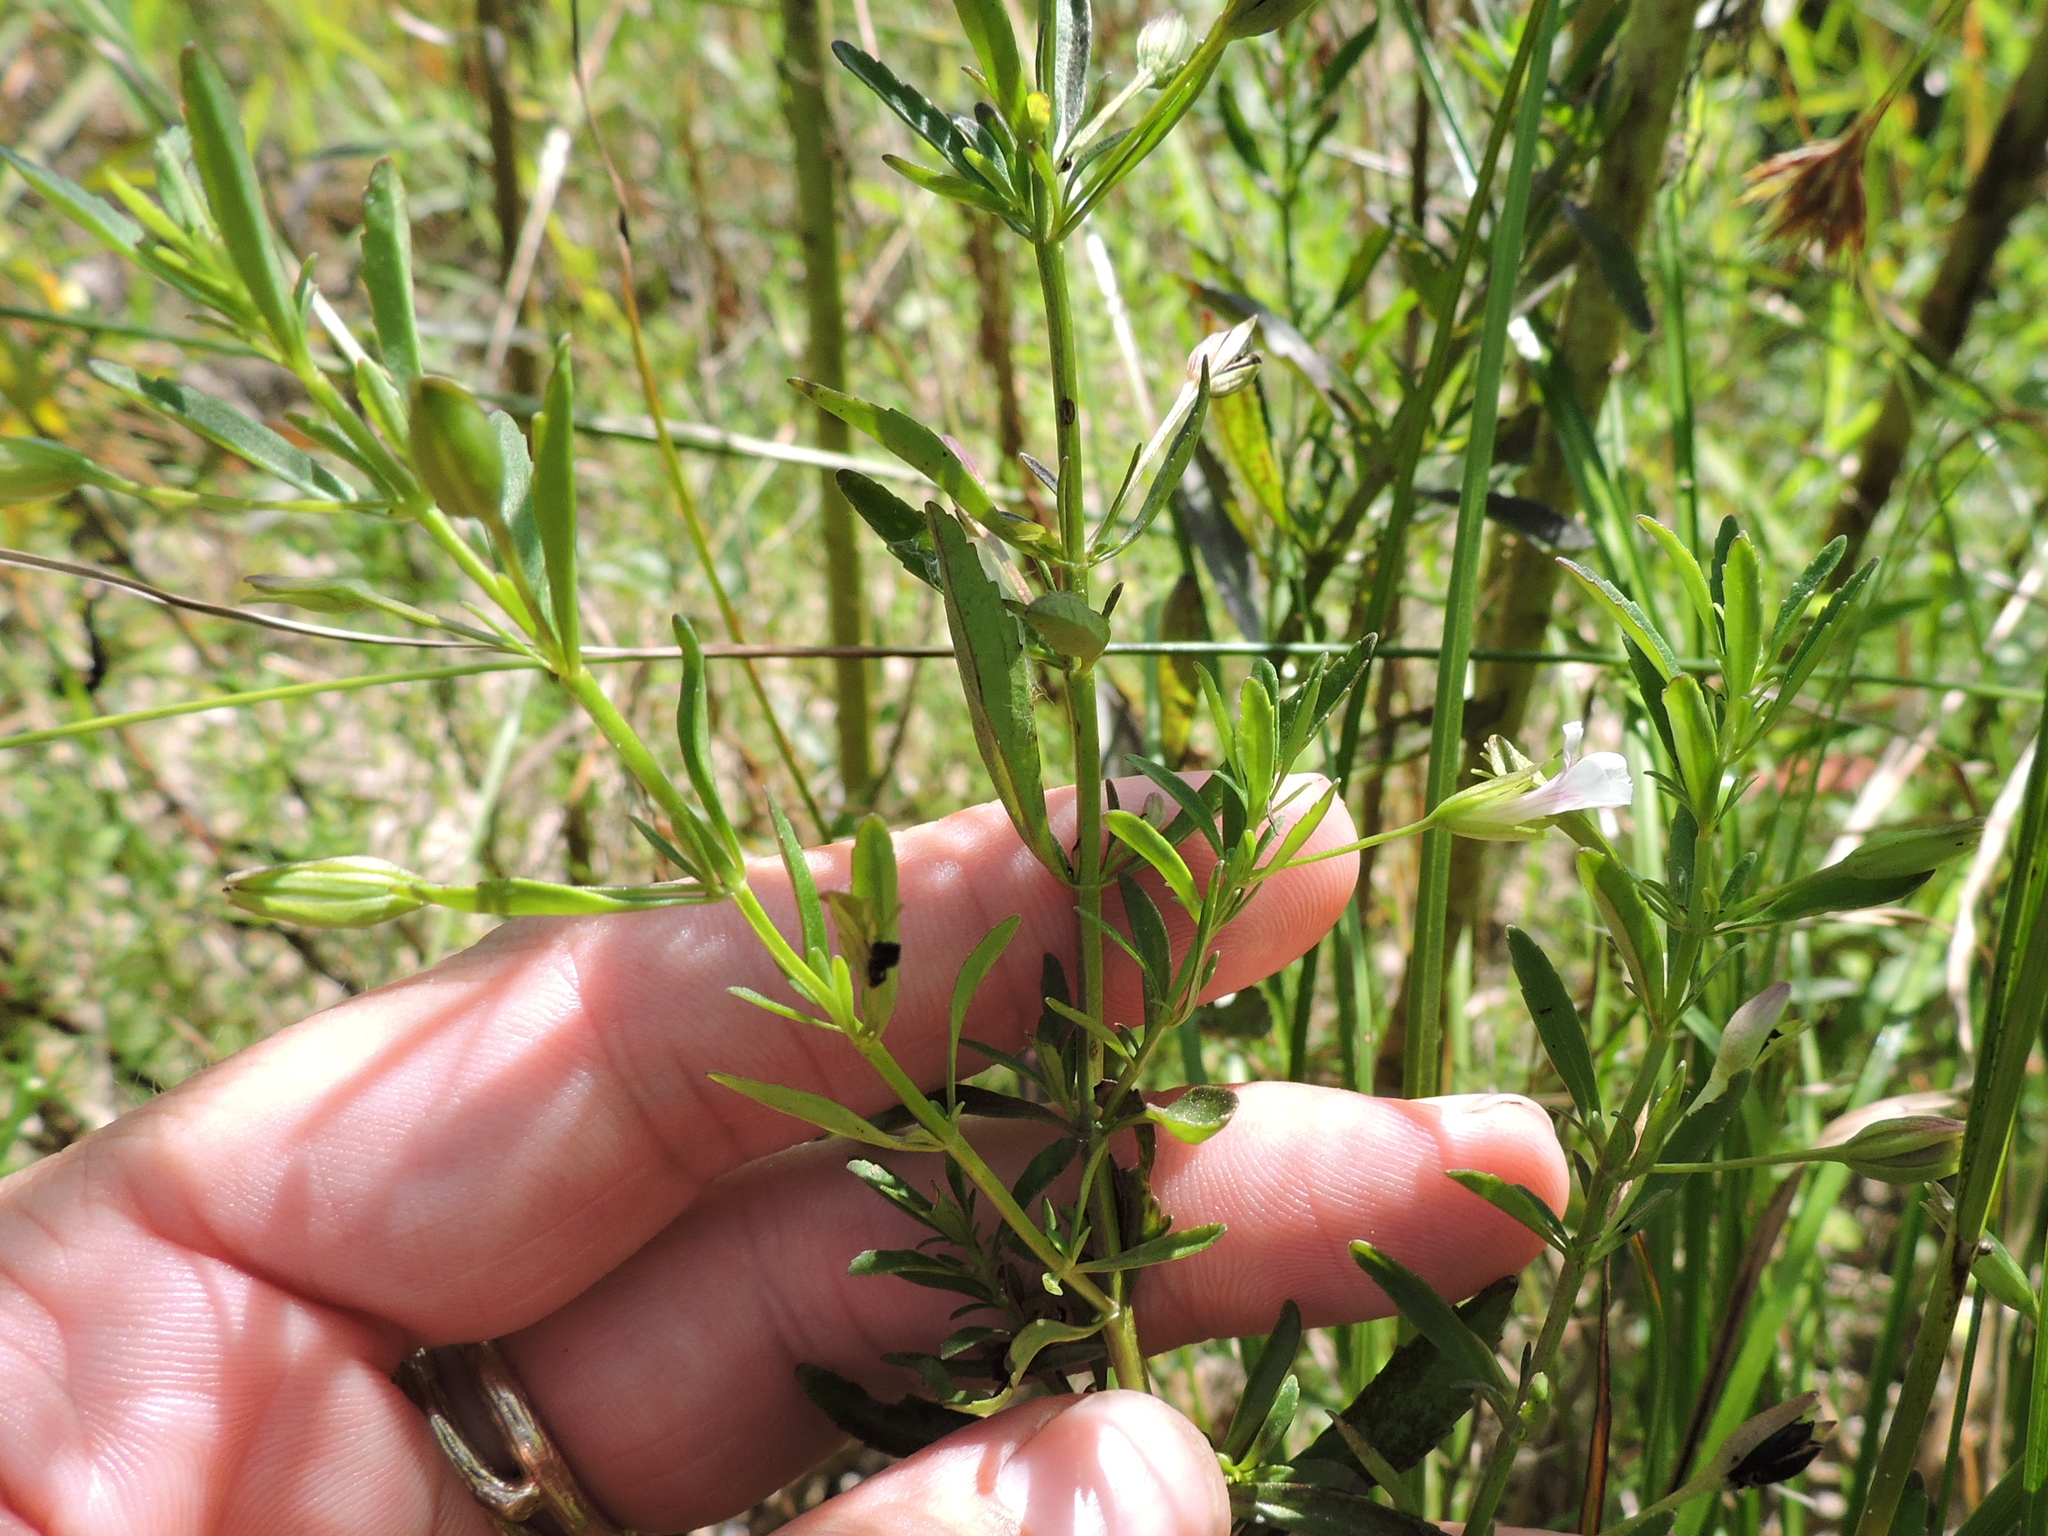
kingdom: Plantae
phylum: Tracheophyta
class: Magnoliopsida
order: Lamiales
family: Plantaginaceae
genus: Mecardonia
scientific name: Mecardonia acuminata
